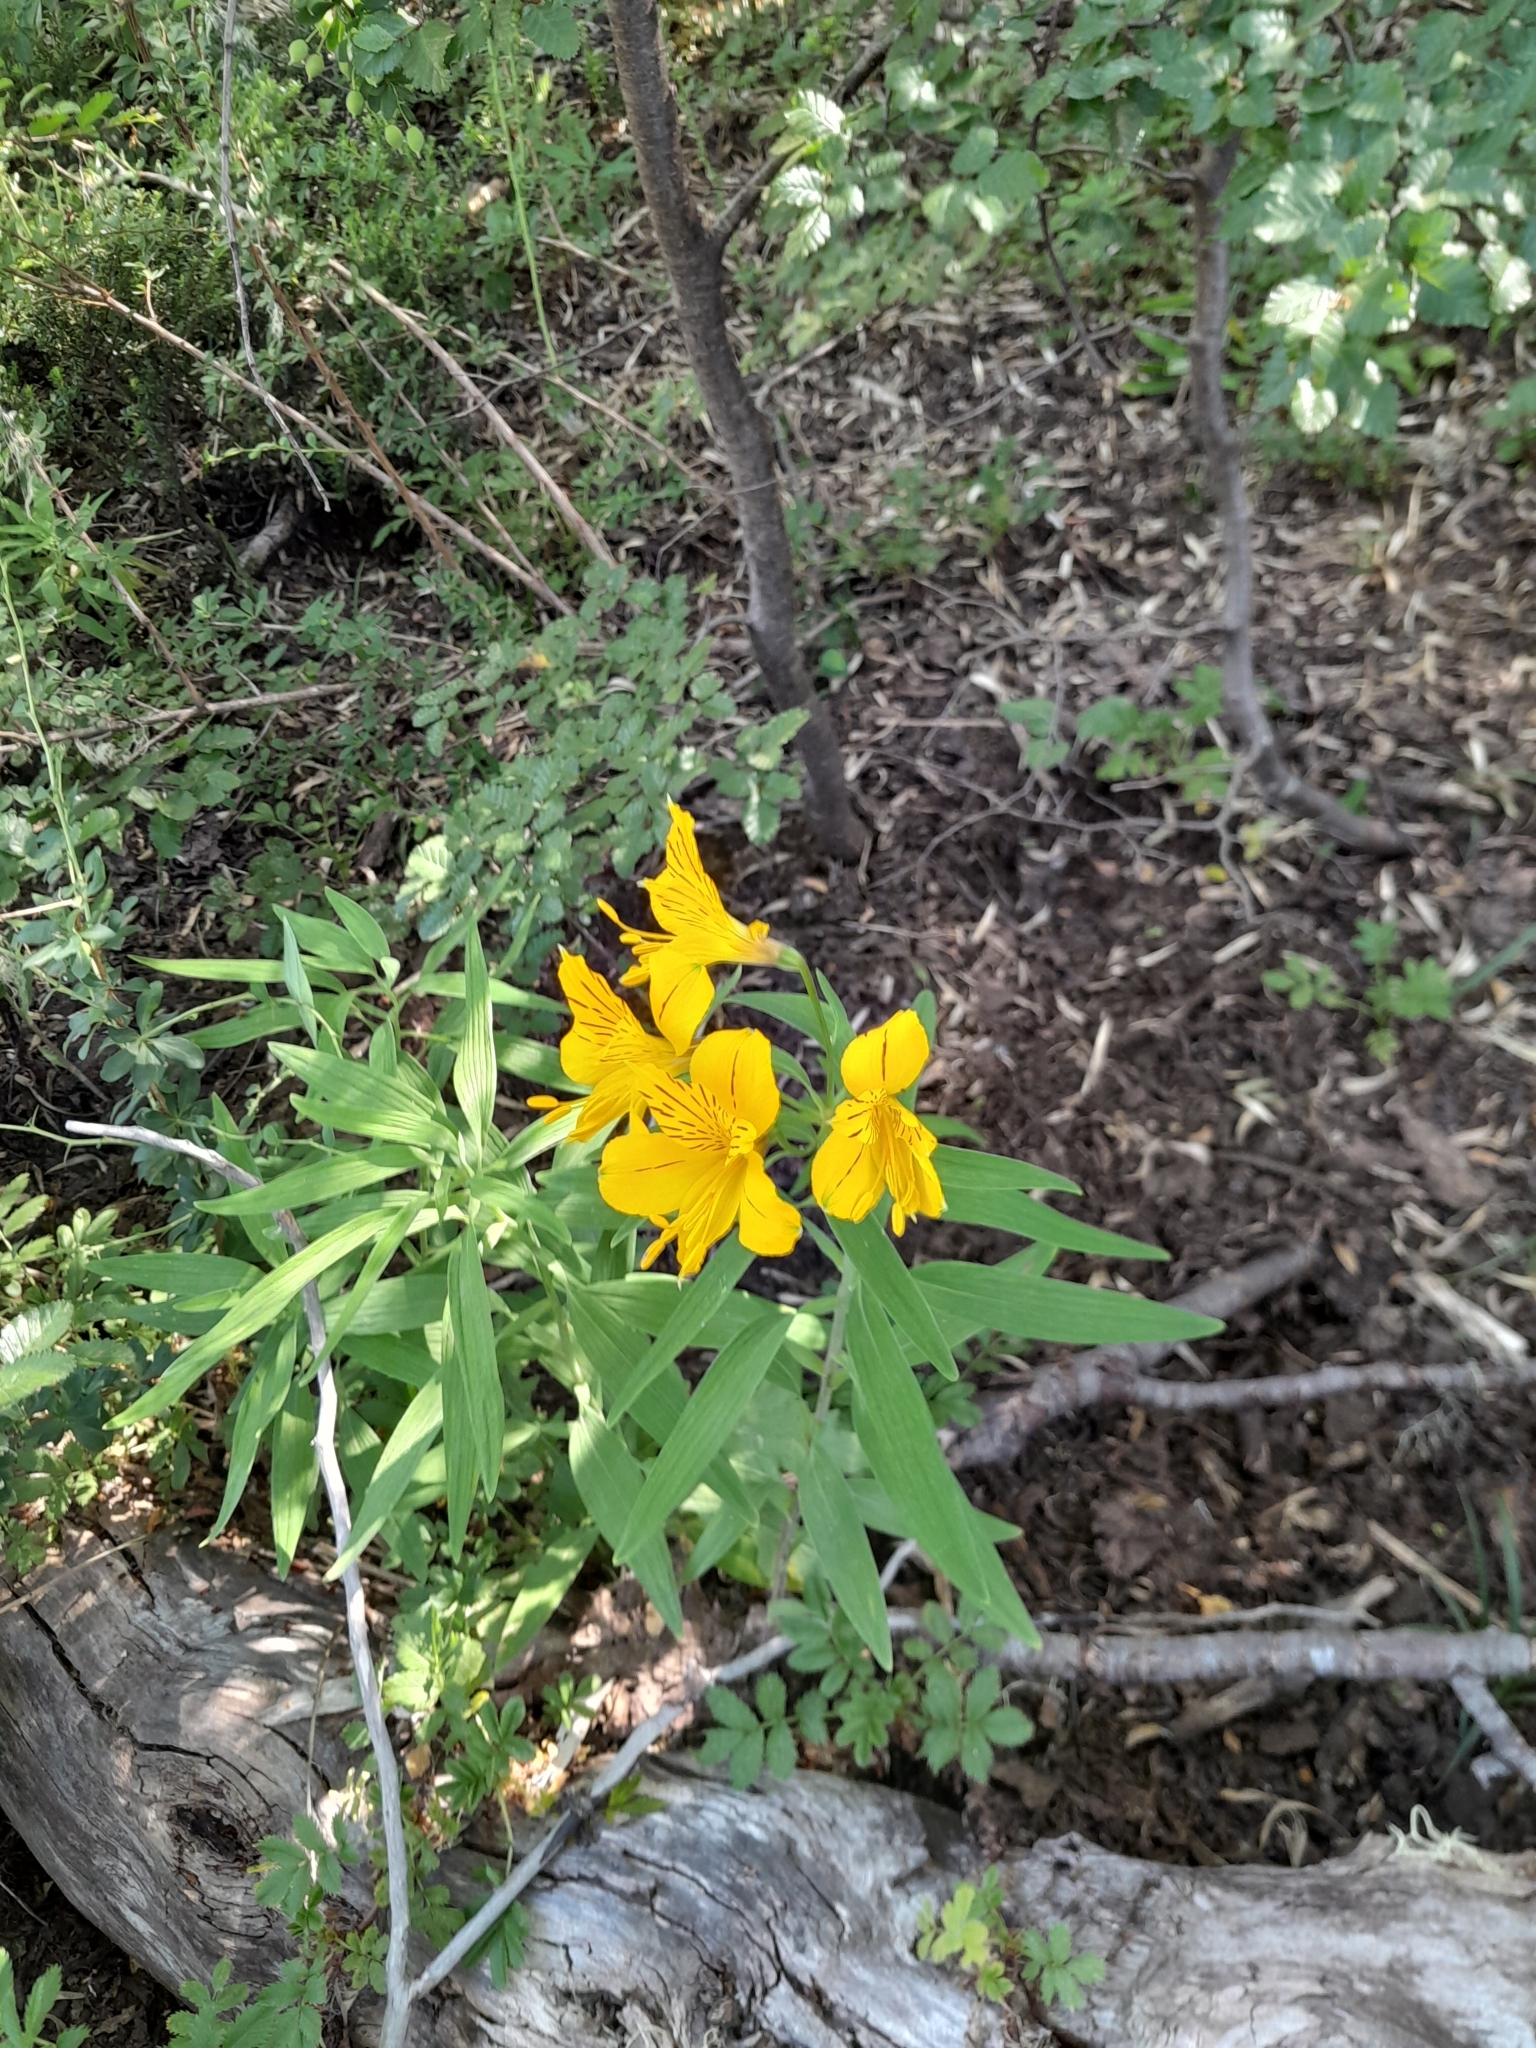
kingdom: Plantae
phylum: Tracheophyta
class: Liliopsida
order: Liliales
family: Alstroemeriaceae
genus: Alstroemeria
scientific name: Alstroemeria aurea
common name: Peruvian lily
